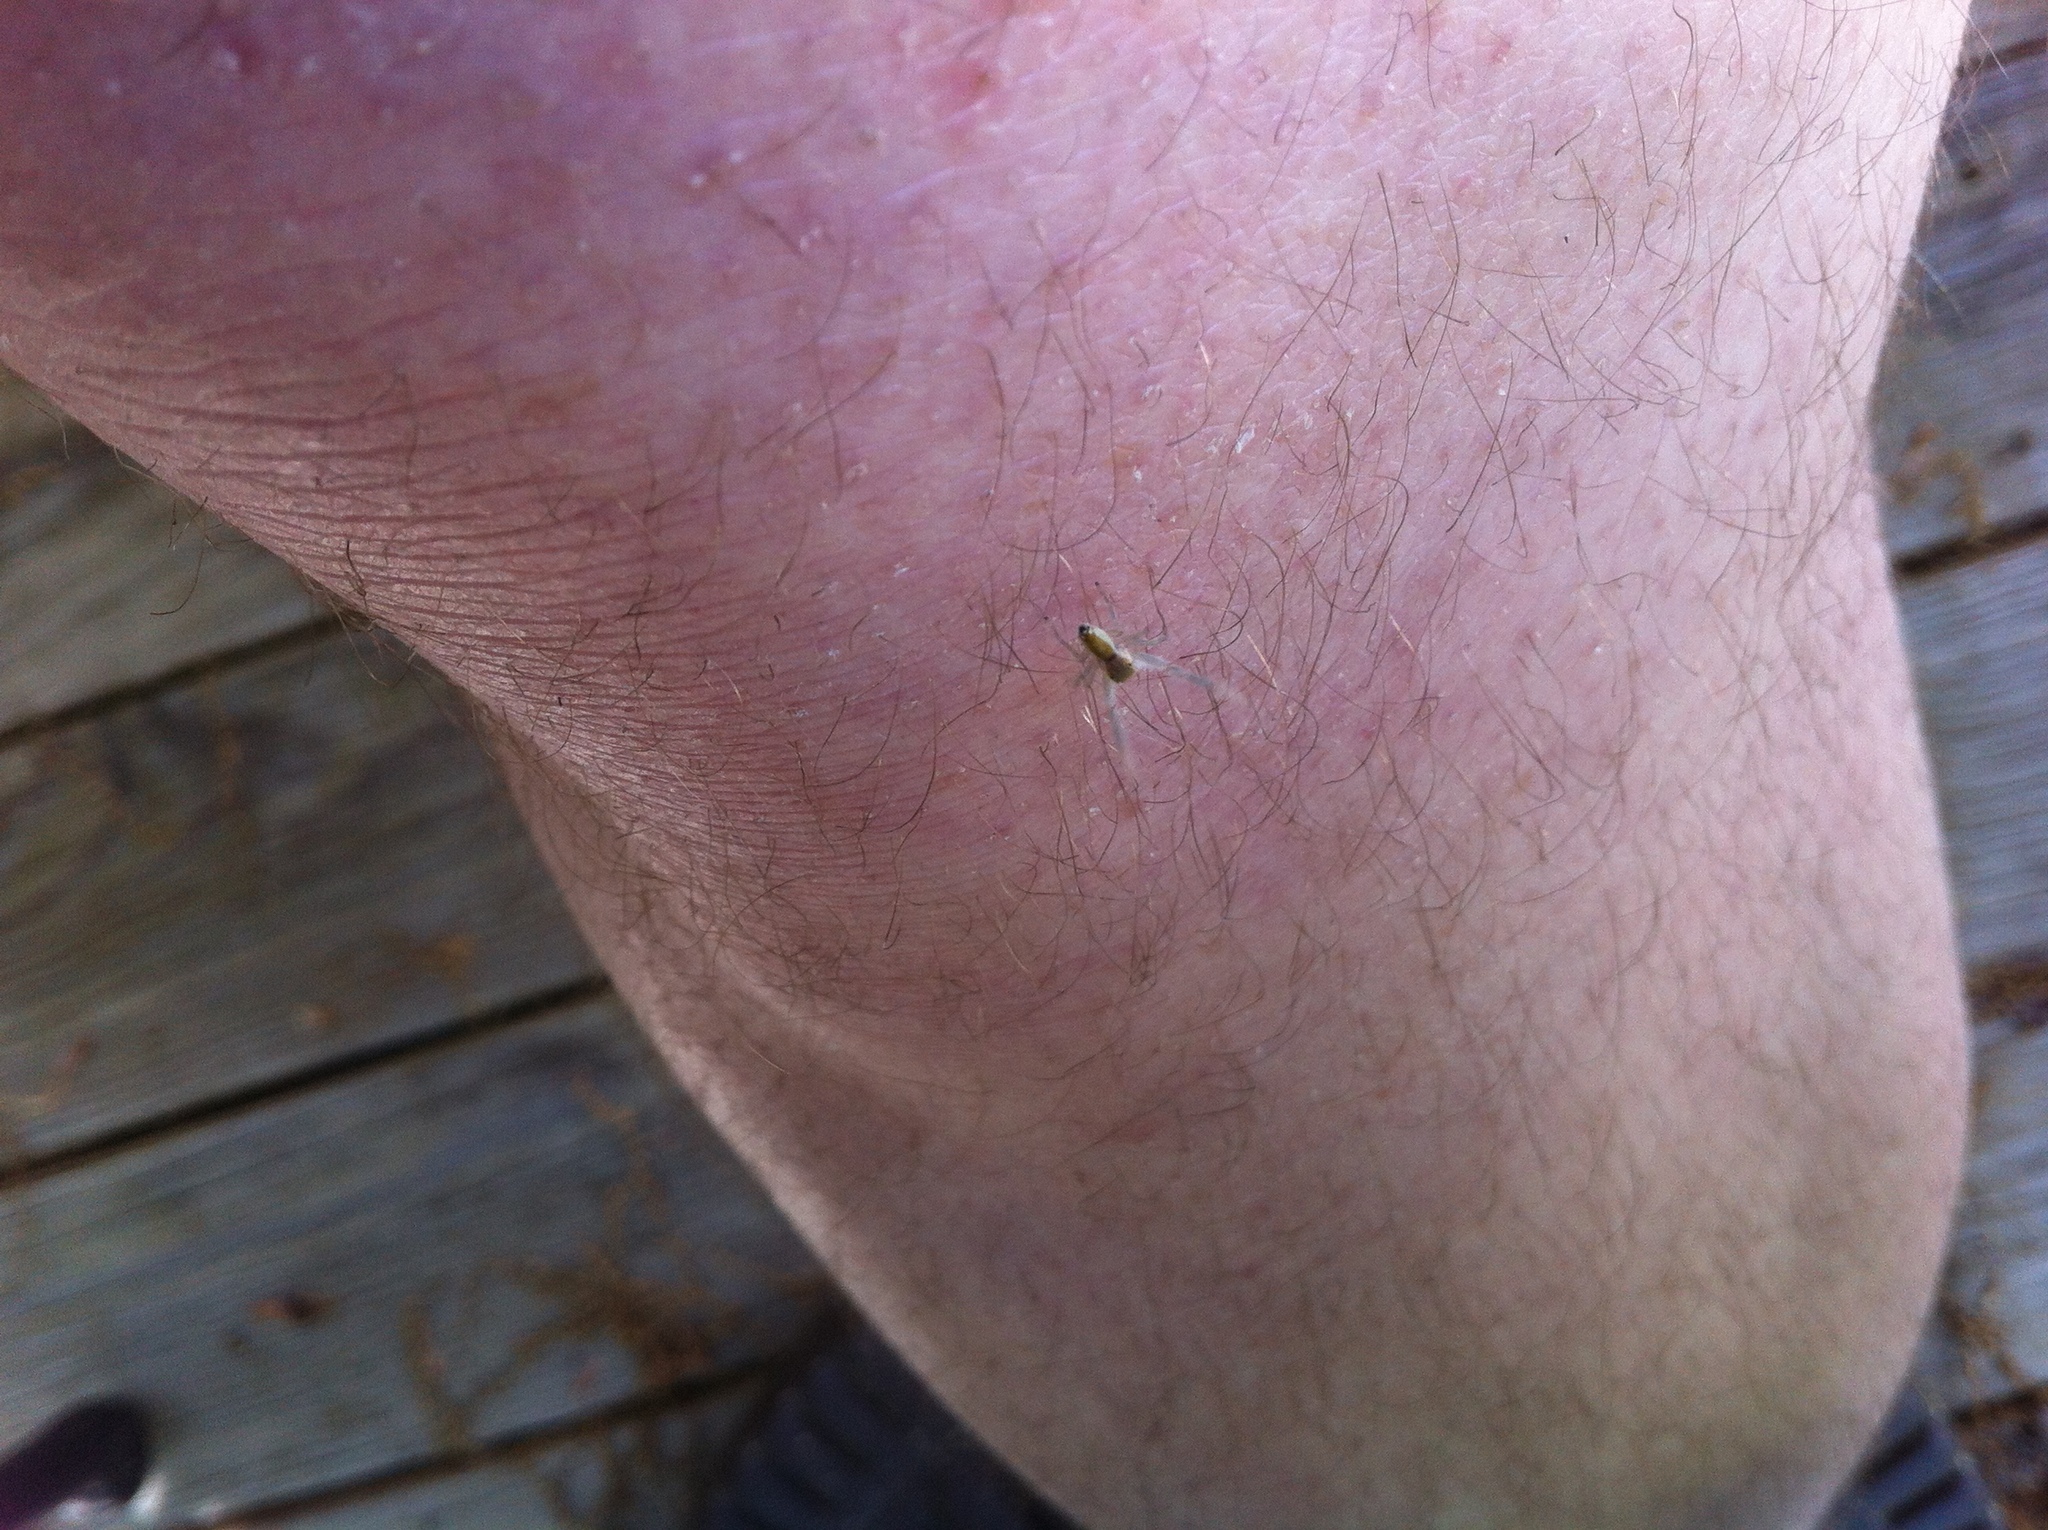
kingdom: Animalia
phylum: Arthropoda
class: Arachnida
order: Araneae
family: Salticidae
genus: Hentzia
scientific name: Hentzia mitrata
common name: White-jawed jumping spider
